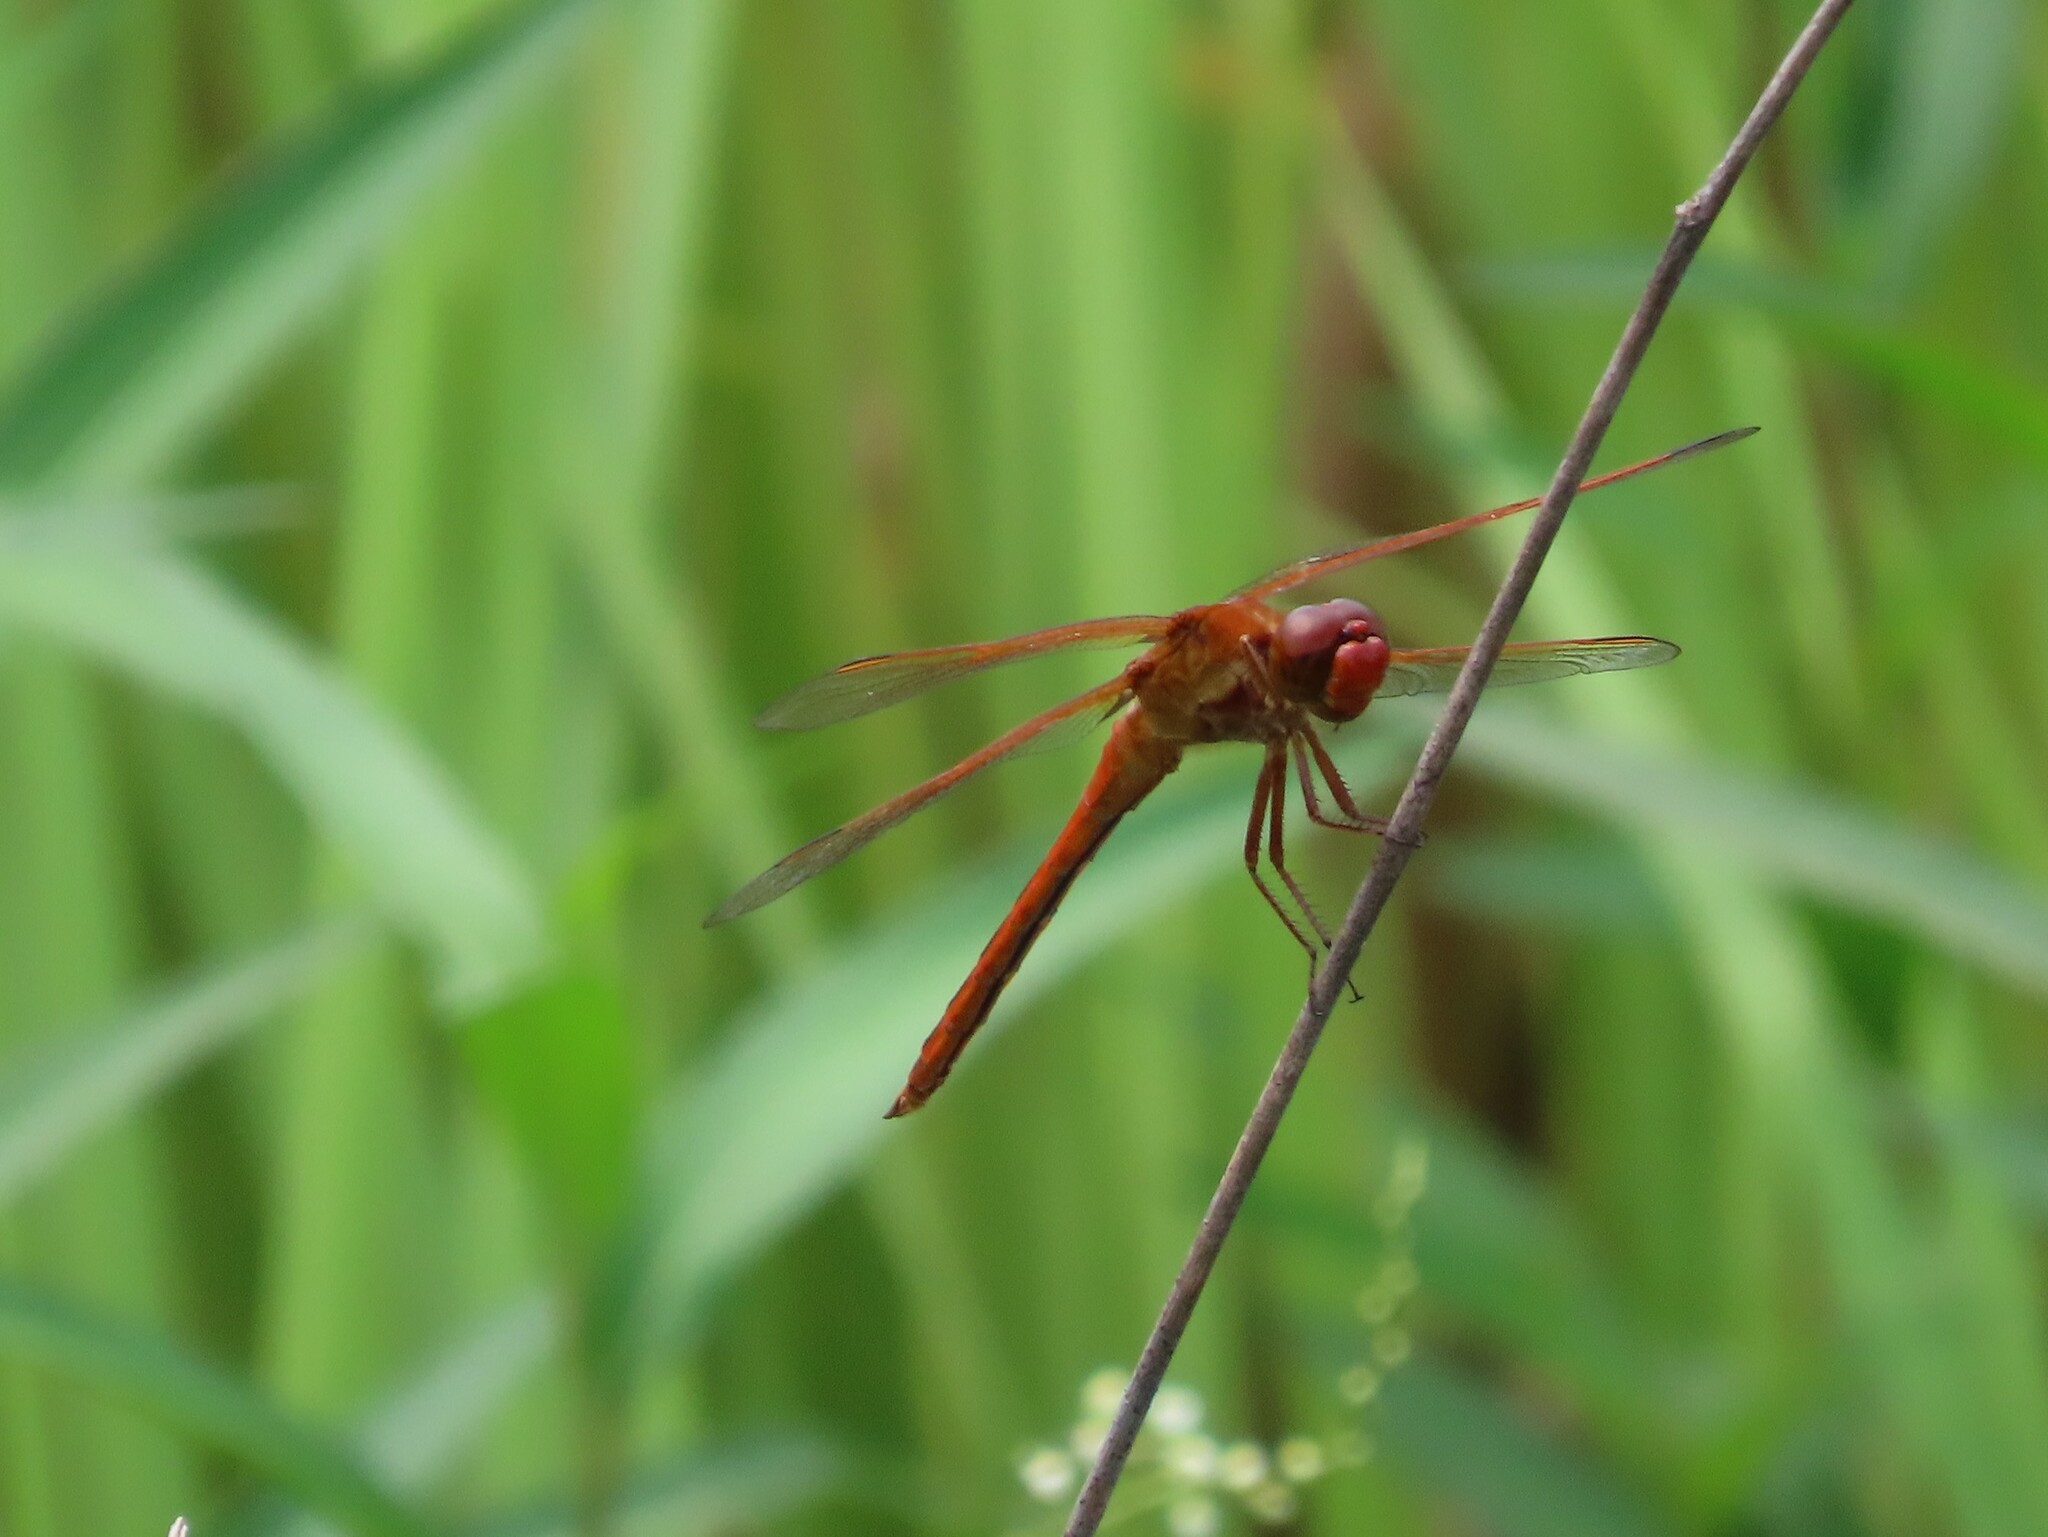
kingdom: Animalia
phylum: Arthropoda
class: Insecta
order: Odonata
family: Libellulidae
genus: Libellula
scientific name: Libellula needhami
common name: Needham's skimmer
